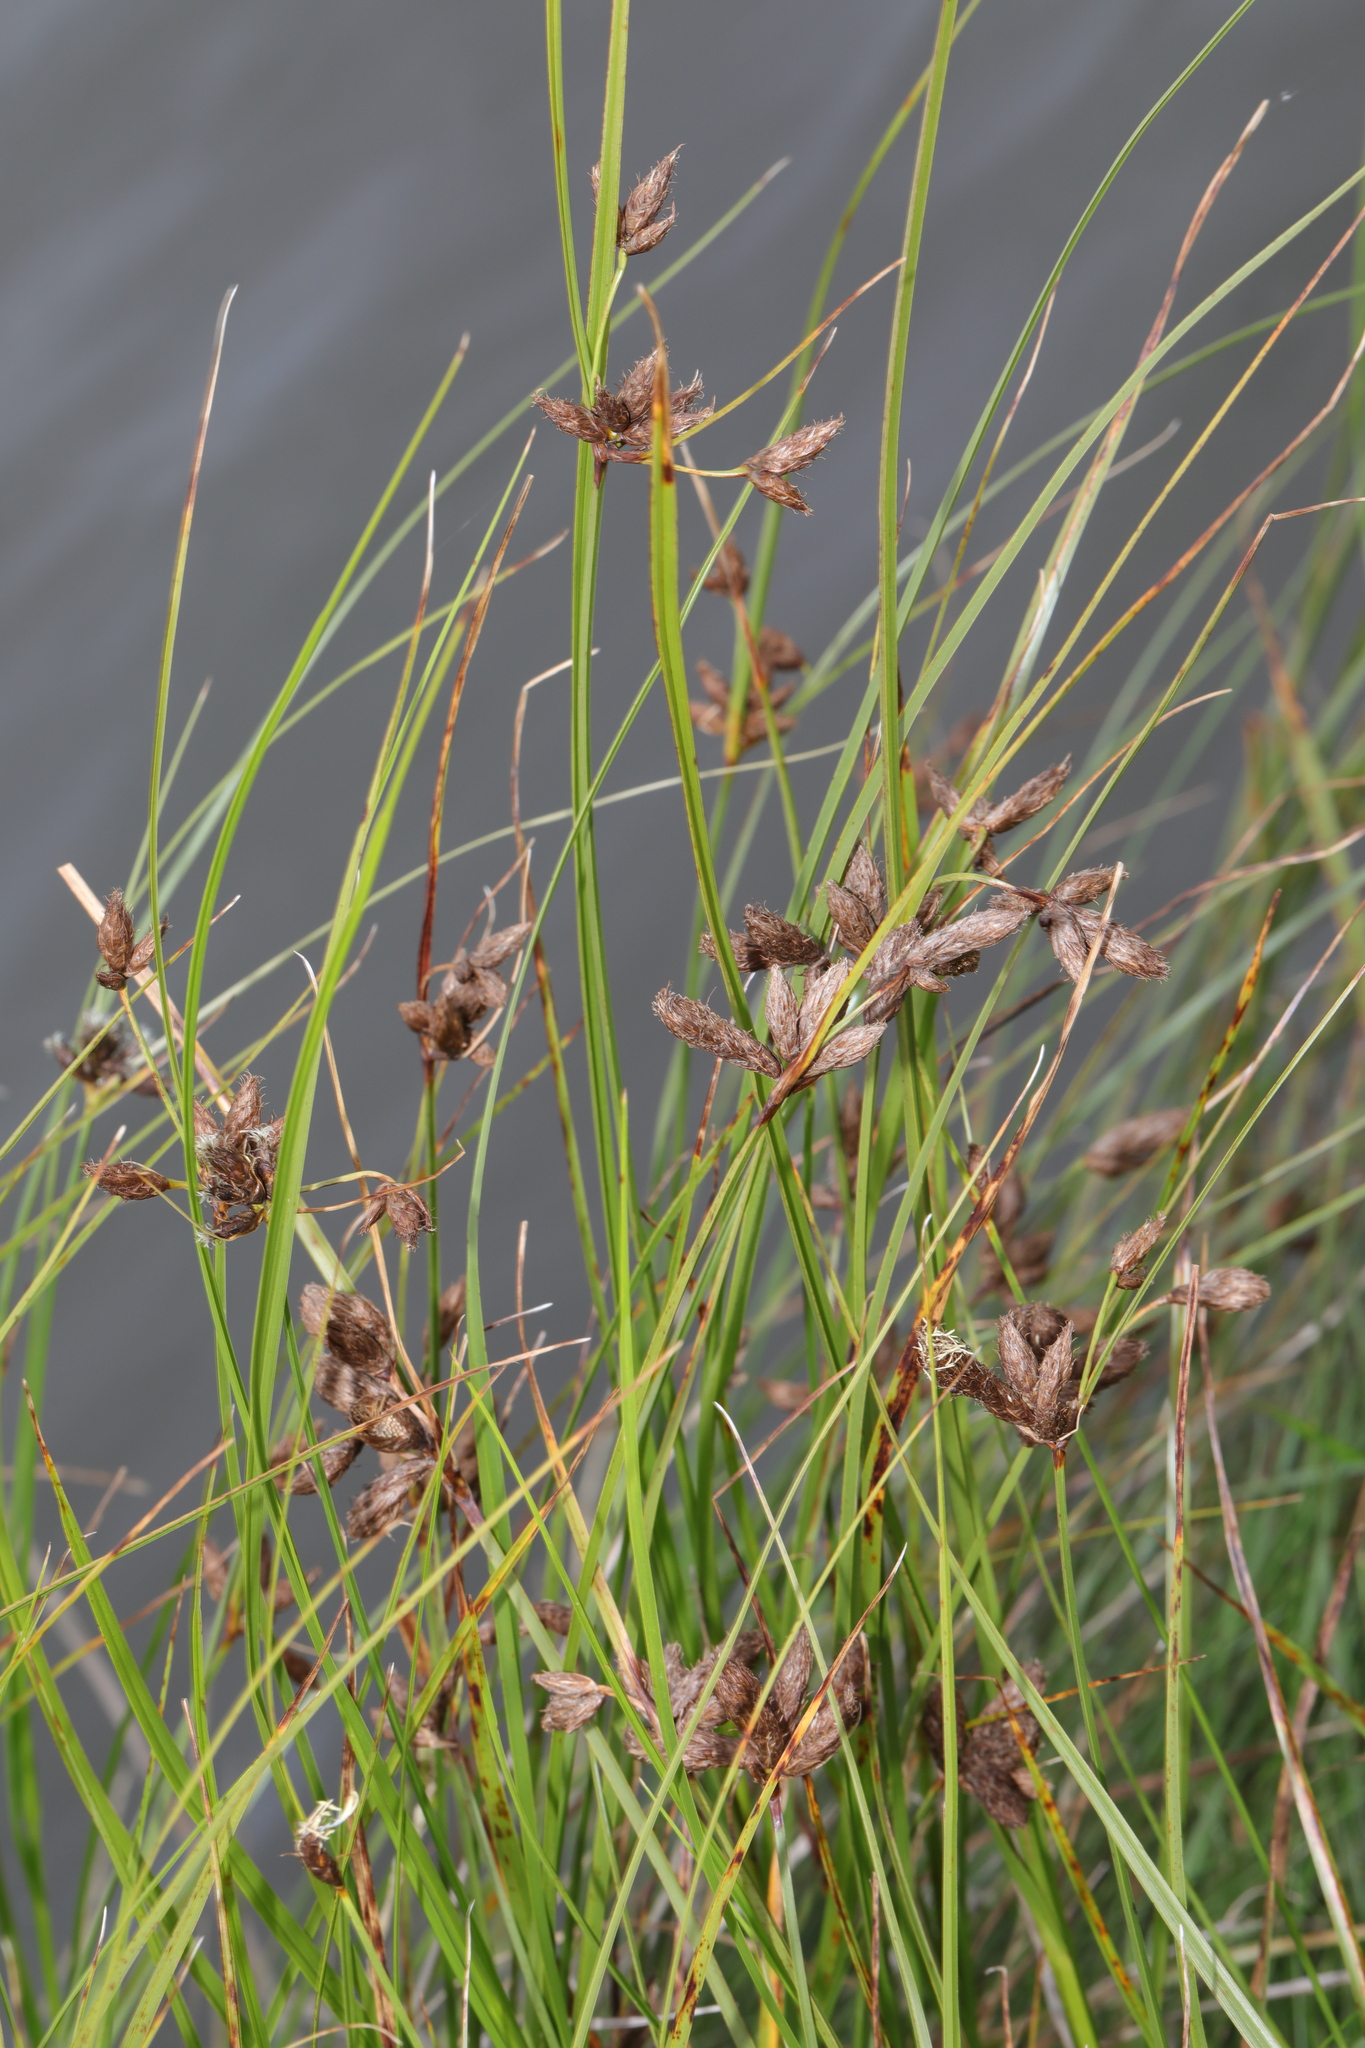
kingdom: Plantae
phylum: Tracheophyta
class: Liliopsida
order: Poales
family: Cyperaceae
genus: Bolboschoenus
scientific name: Bolboschoenus maritimus
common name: Sea club-rush
